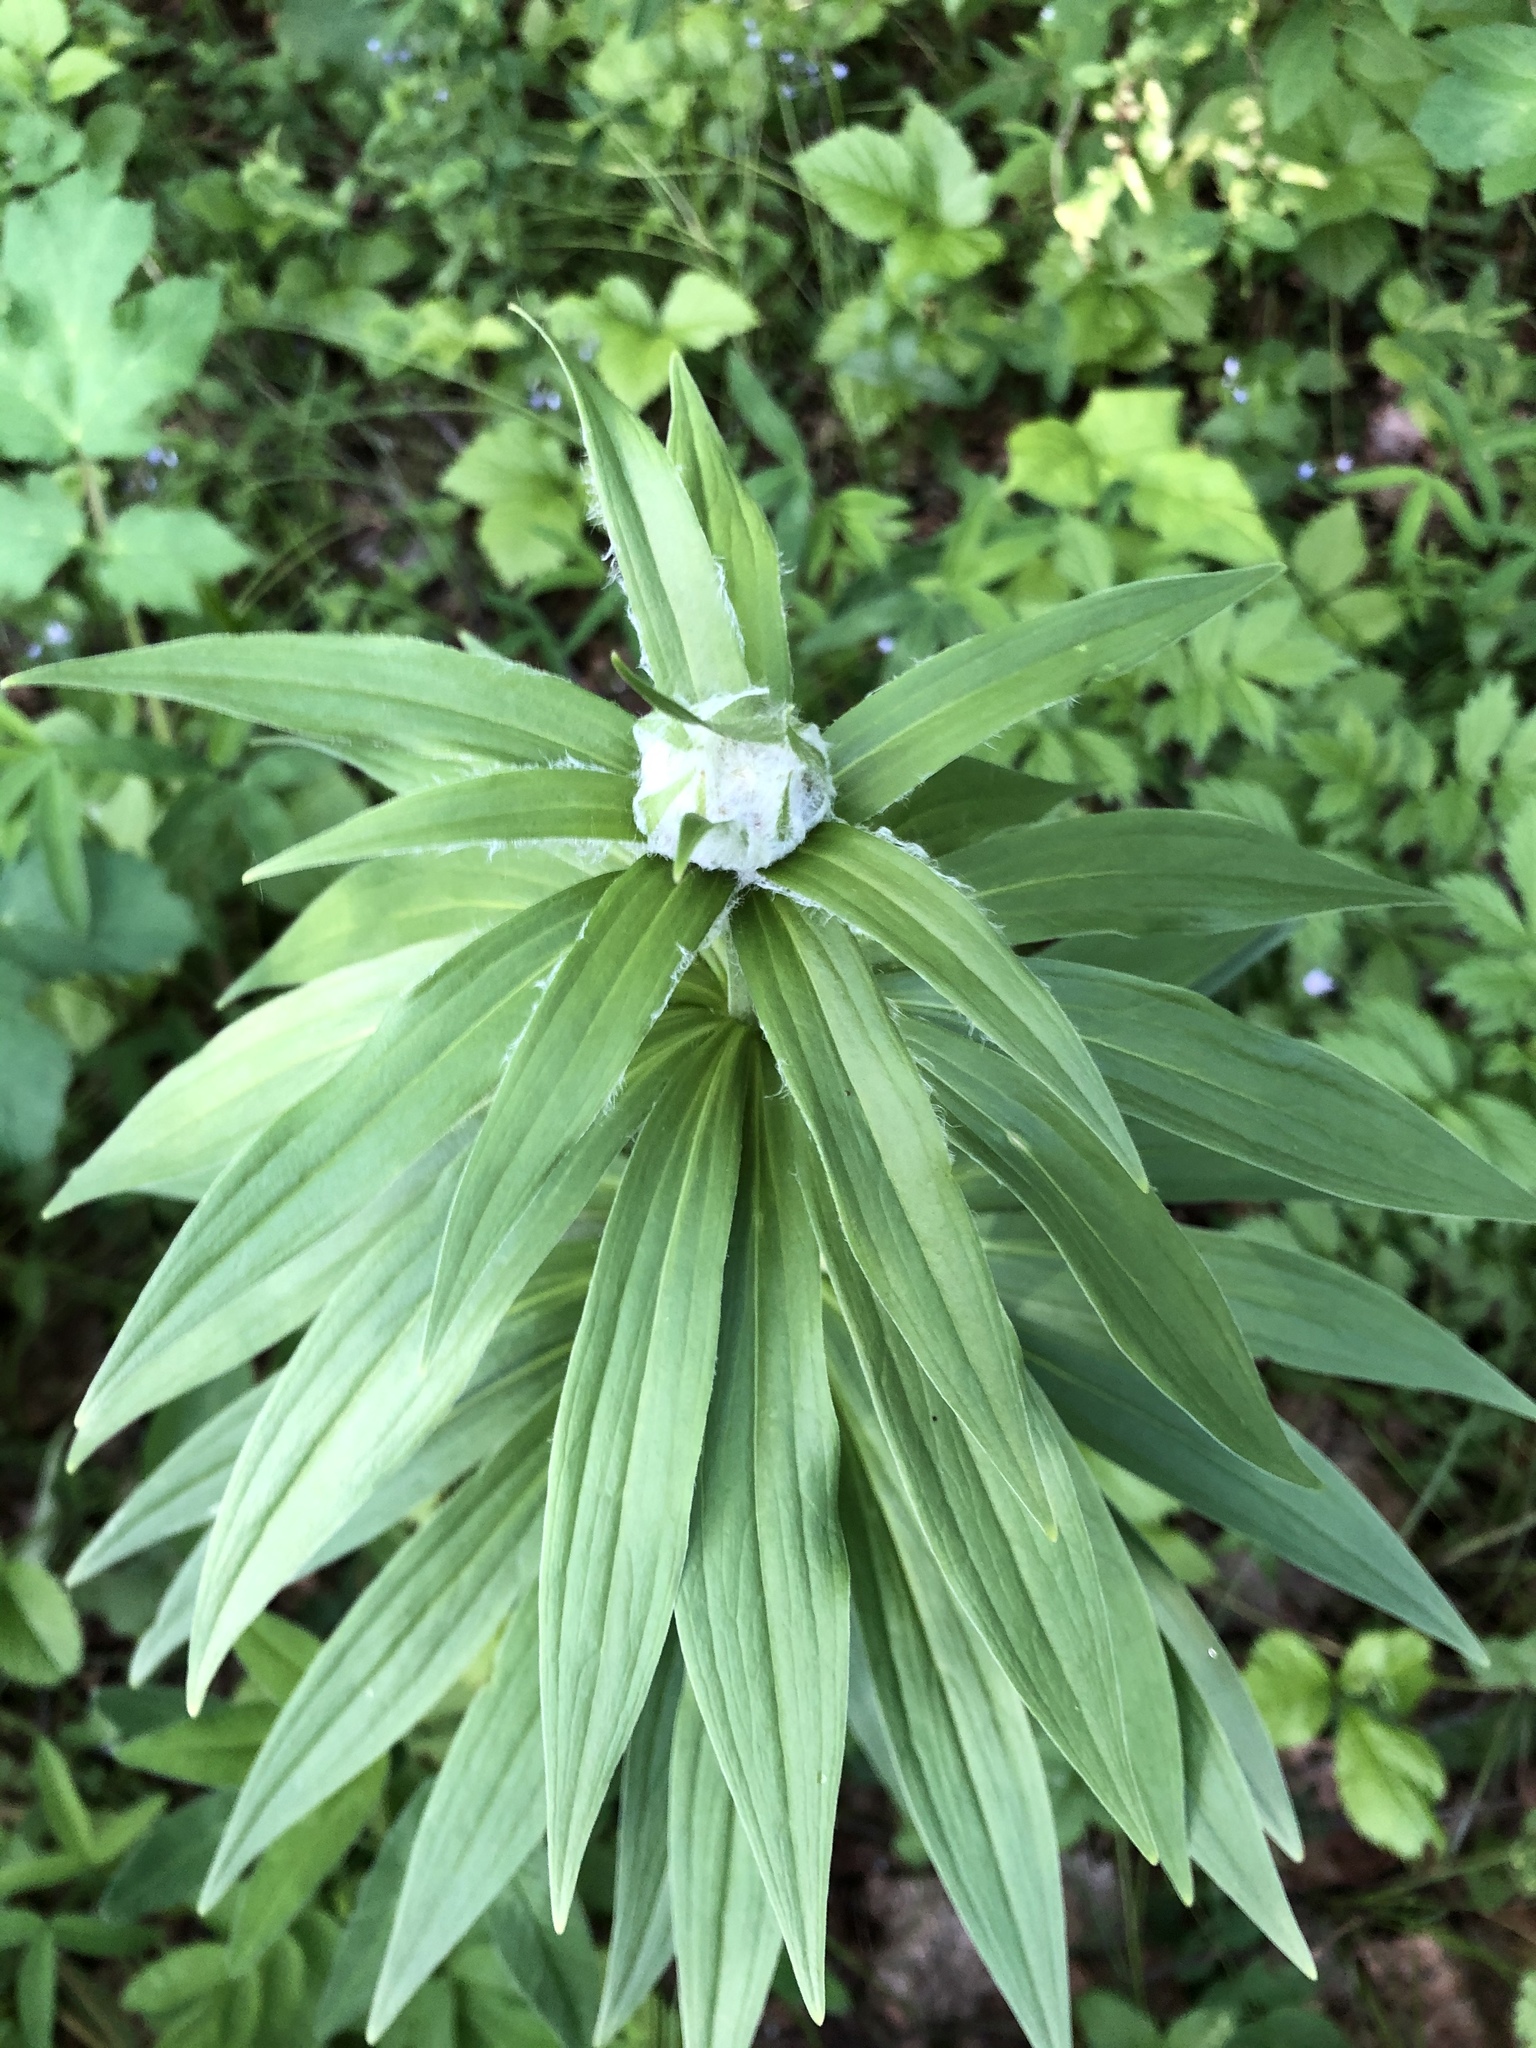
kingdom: Plantae
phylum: Tracheophyta
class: Liliopsida
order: Liliales
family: Liliaceae
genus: Lilium
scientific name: Lilium martagon
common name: Martagon lily
